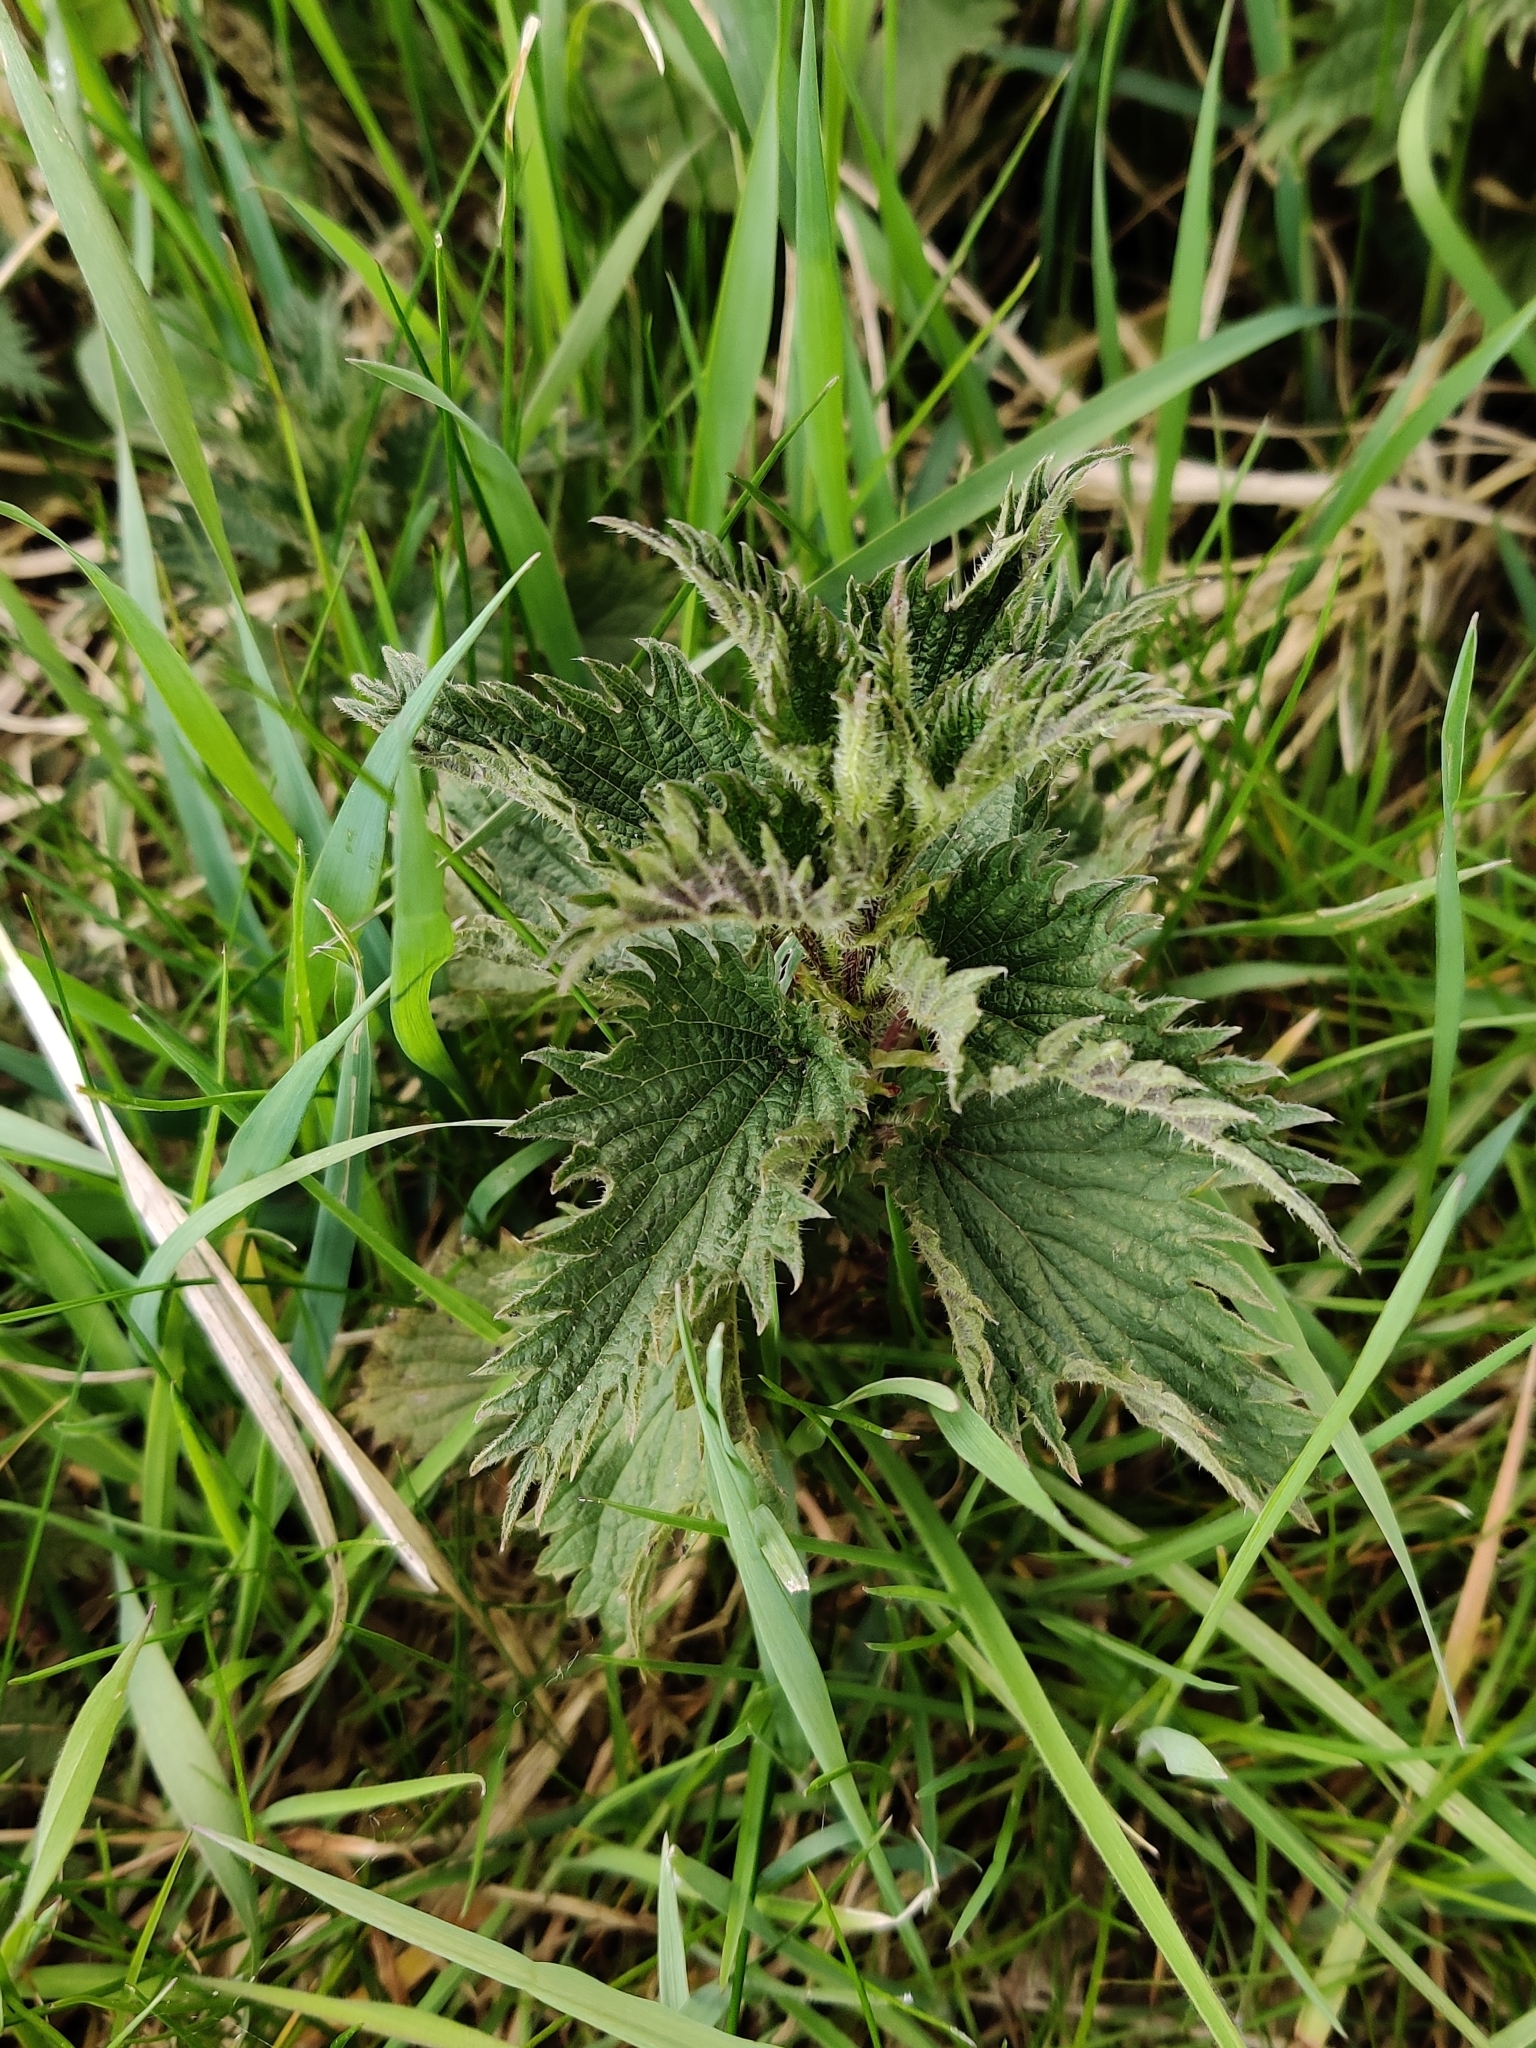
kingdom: Plantae
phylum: Tracheophyta
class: Magnoliopsida
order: Rosales
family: Urticaceae
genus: Urtica
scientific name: Urtica dioica
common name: Common nettle
